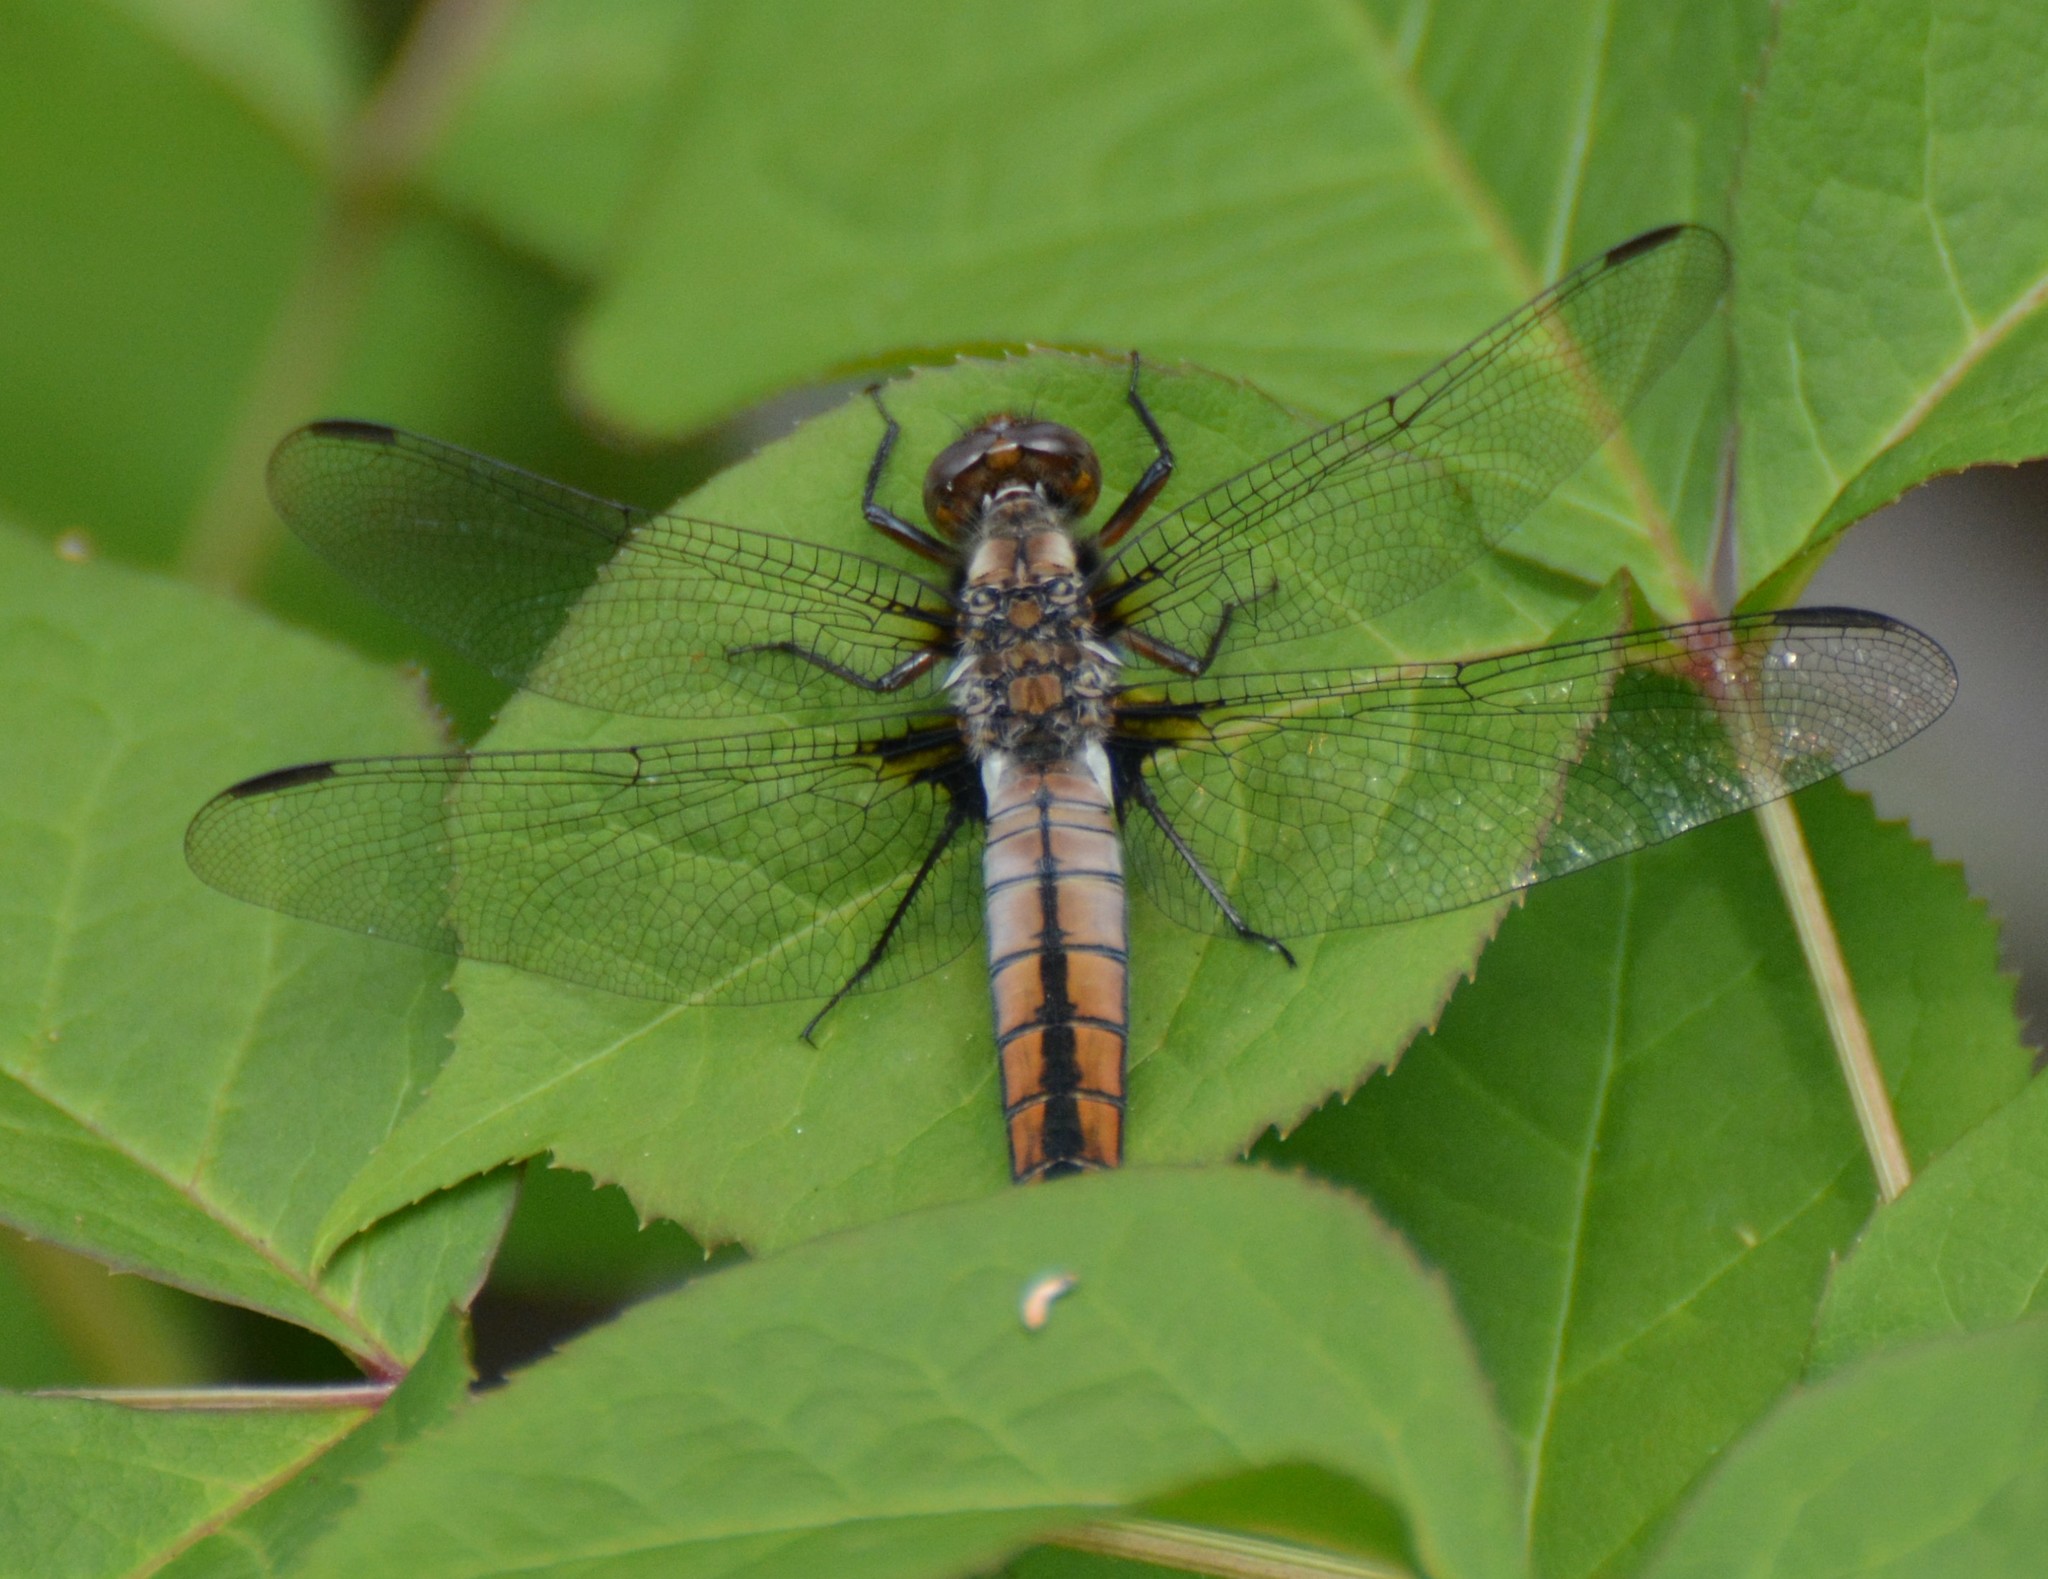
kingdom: Animalia
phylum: Arthropoda
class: Insecta
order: Odonata
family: Libellulidae
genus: Ladona
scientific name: Ladona julia
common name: Chalk-fronted corporal
